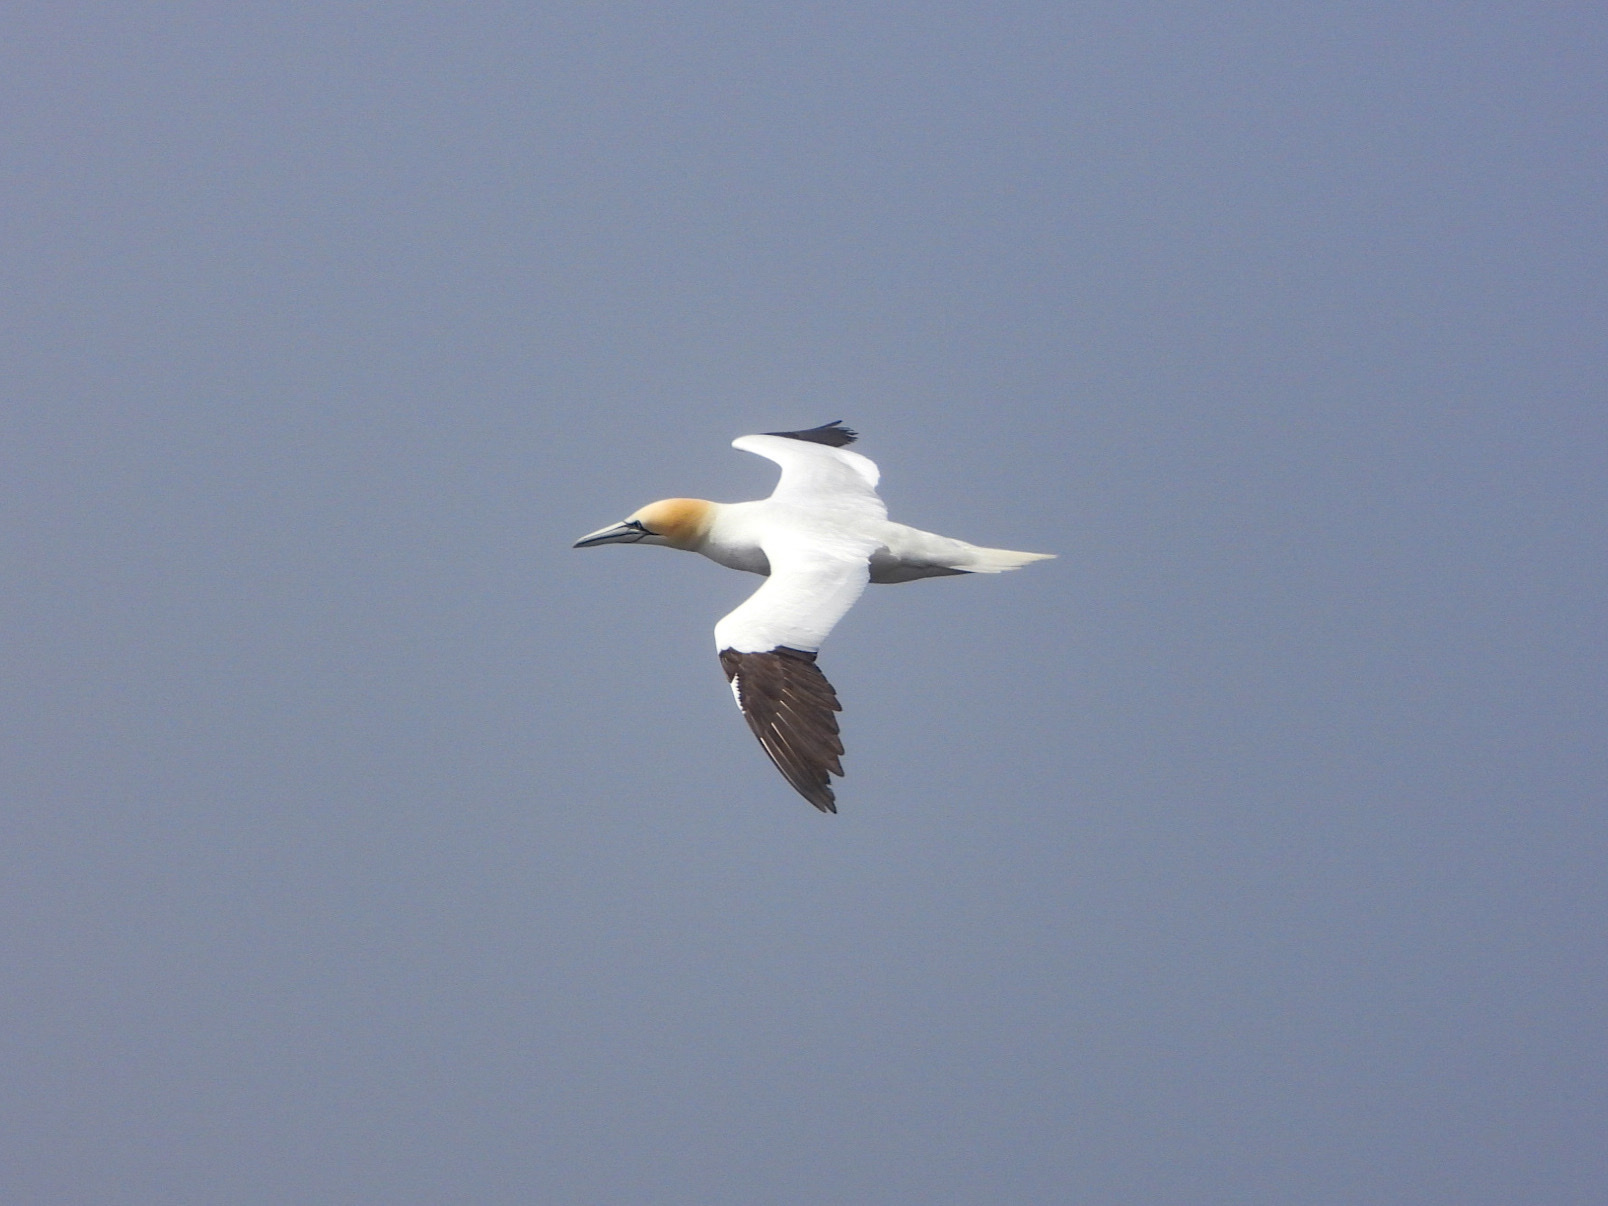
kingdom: Animalia
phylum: Chordata
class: Aves
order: Suliformes
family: Sulidae
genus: Morus
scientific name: Morus bassanus
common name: Northern gannet
